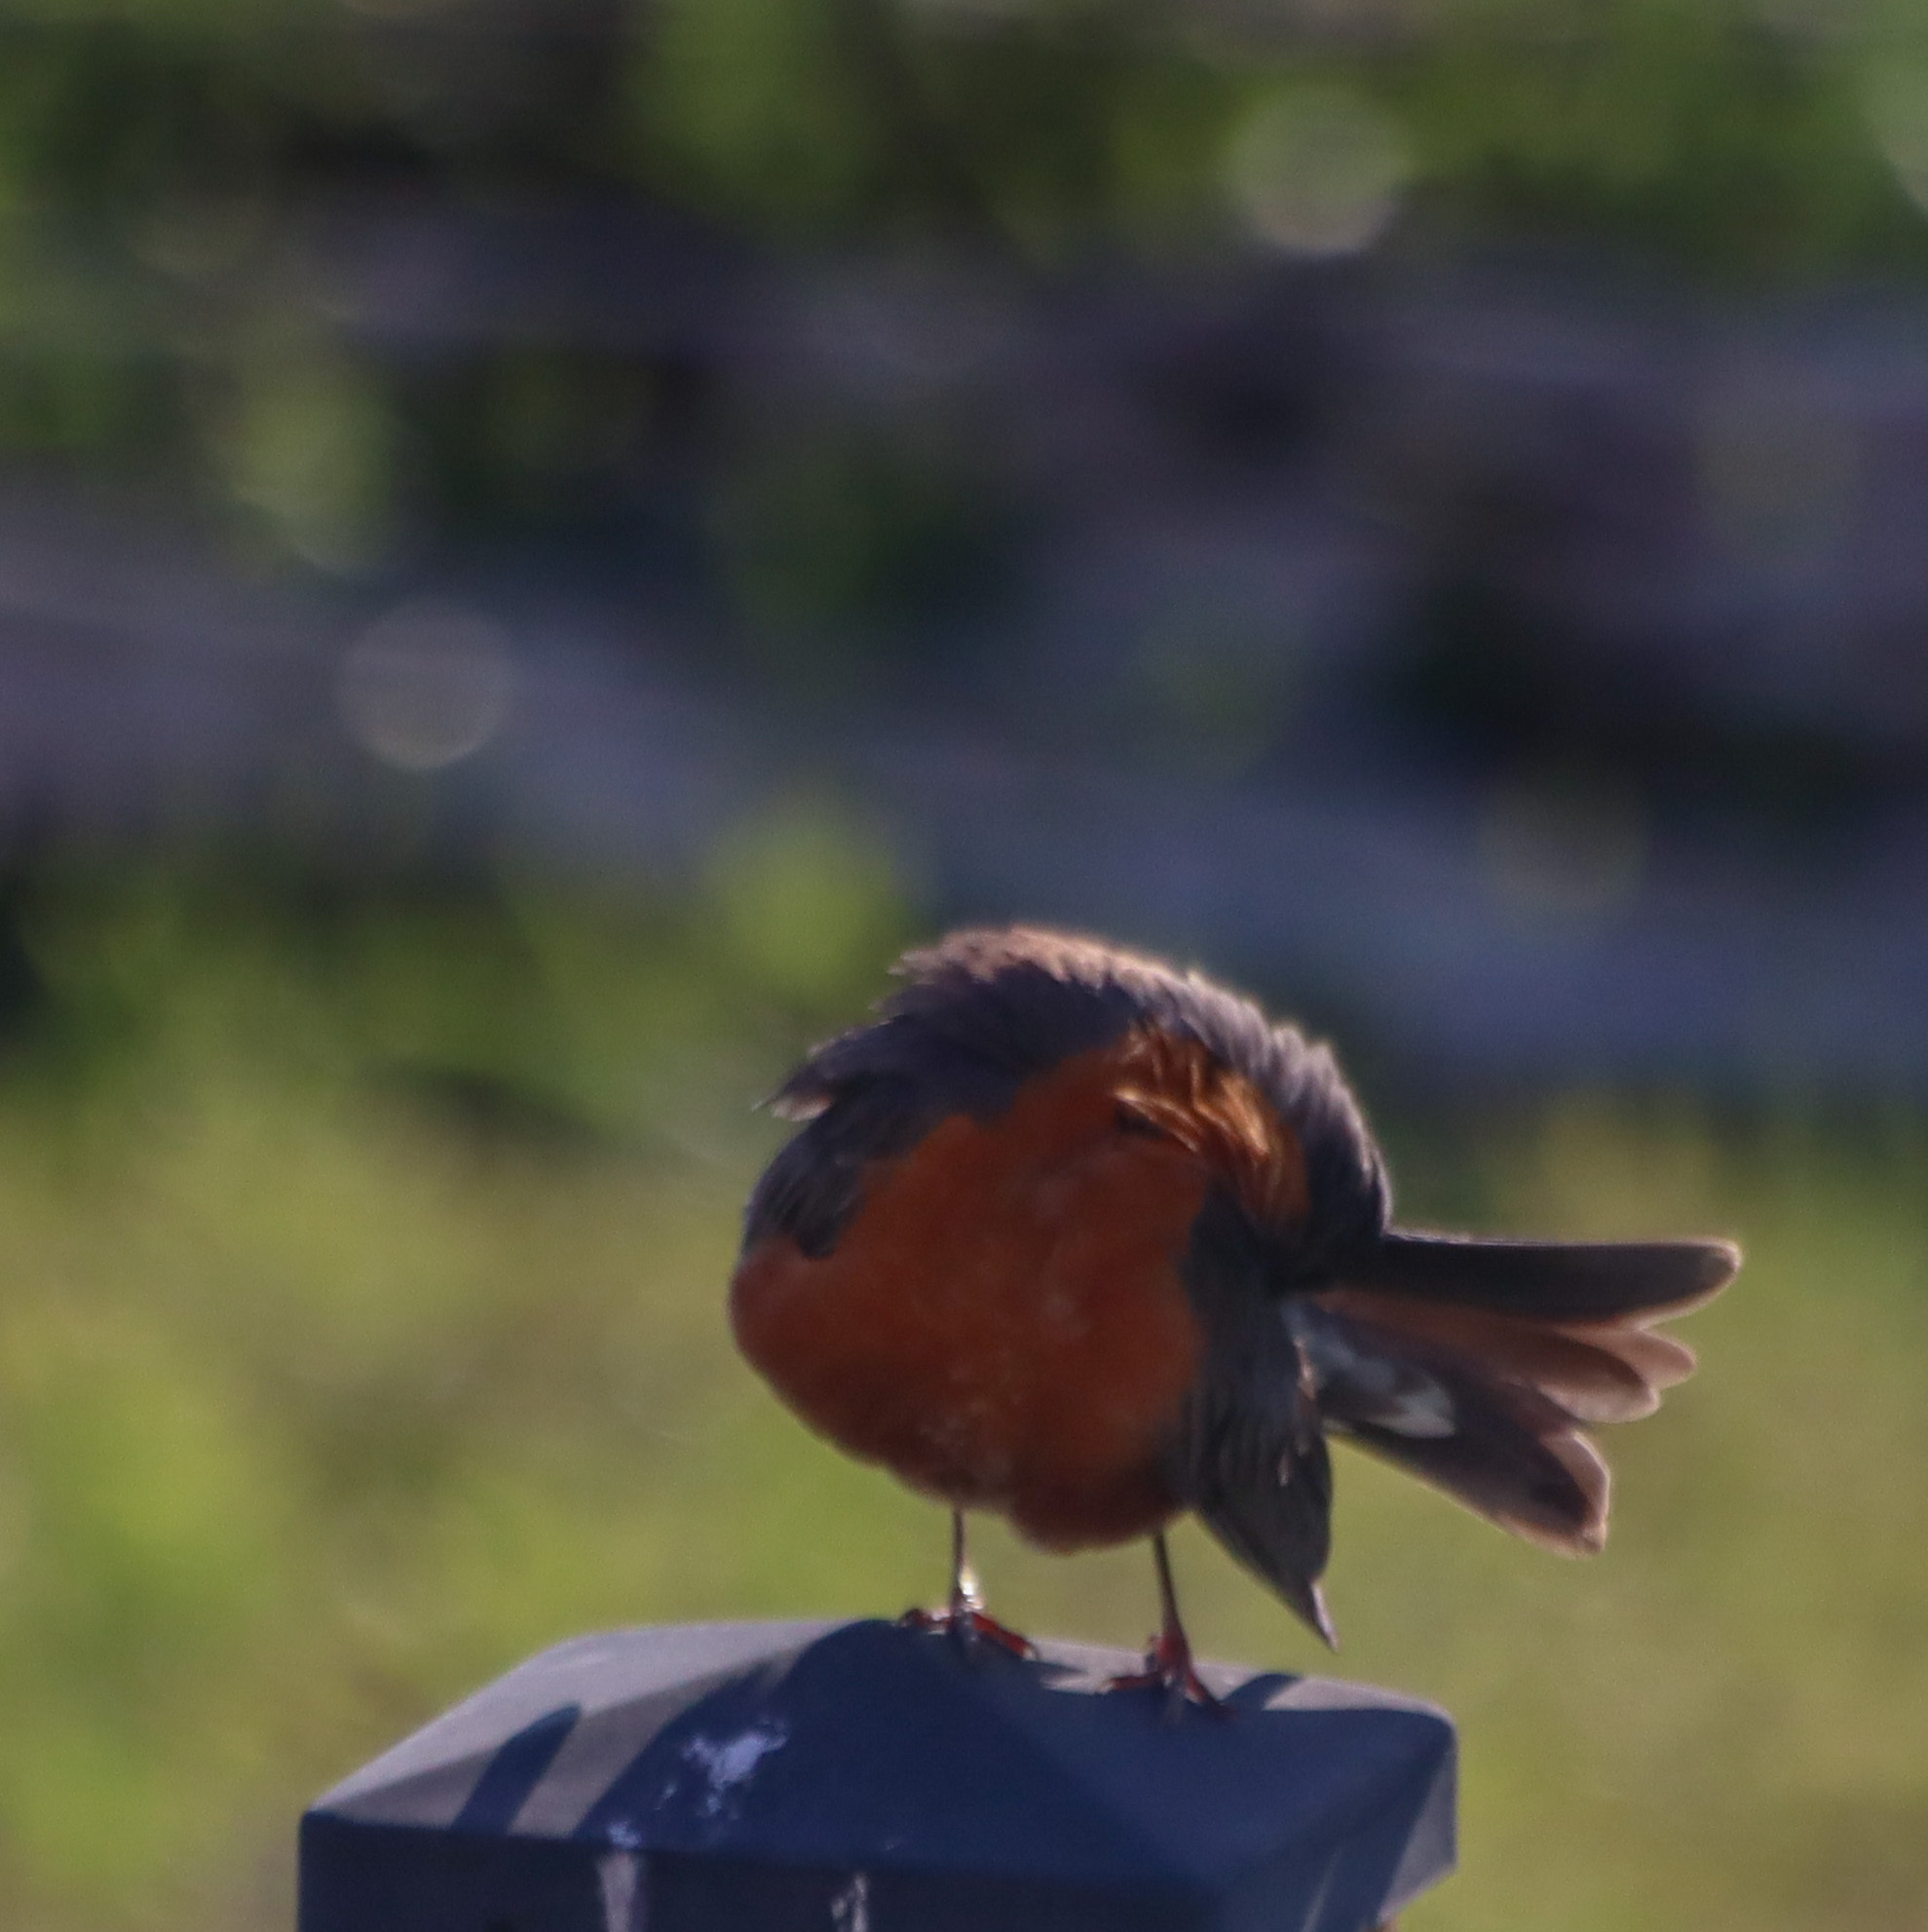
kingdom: Animalia
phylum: Chordata
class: Aves
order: Passeriformes
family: Turdidae
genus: Turdus
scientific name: Turdus migratorius
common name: American robin
